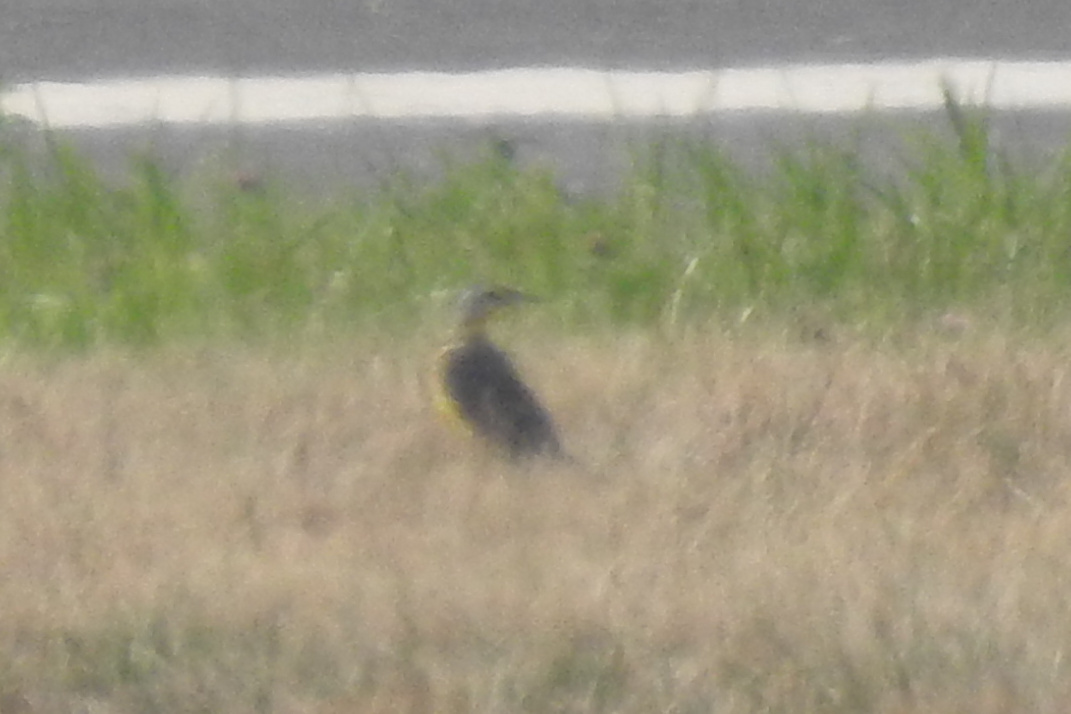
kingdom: Animalia
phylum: Chordata
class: Aves
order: Passeriformes
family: Icteridae
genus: Sturnella
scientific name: Sturnella magna
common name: Eastern meadowlark
